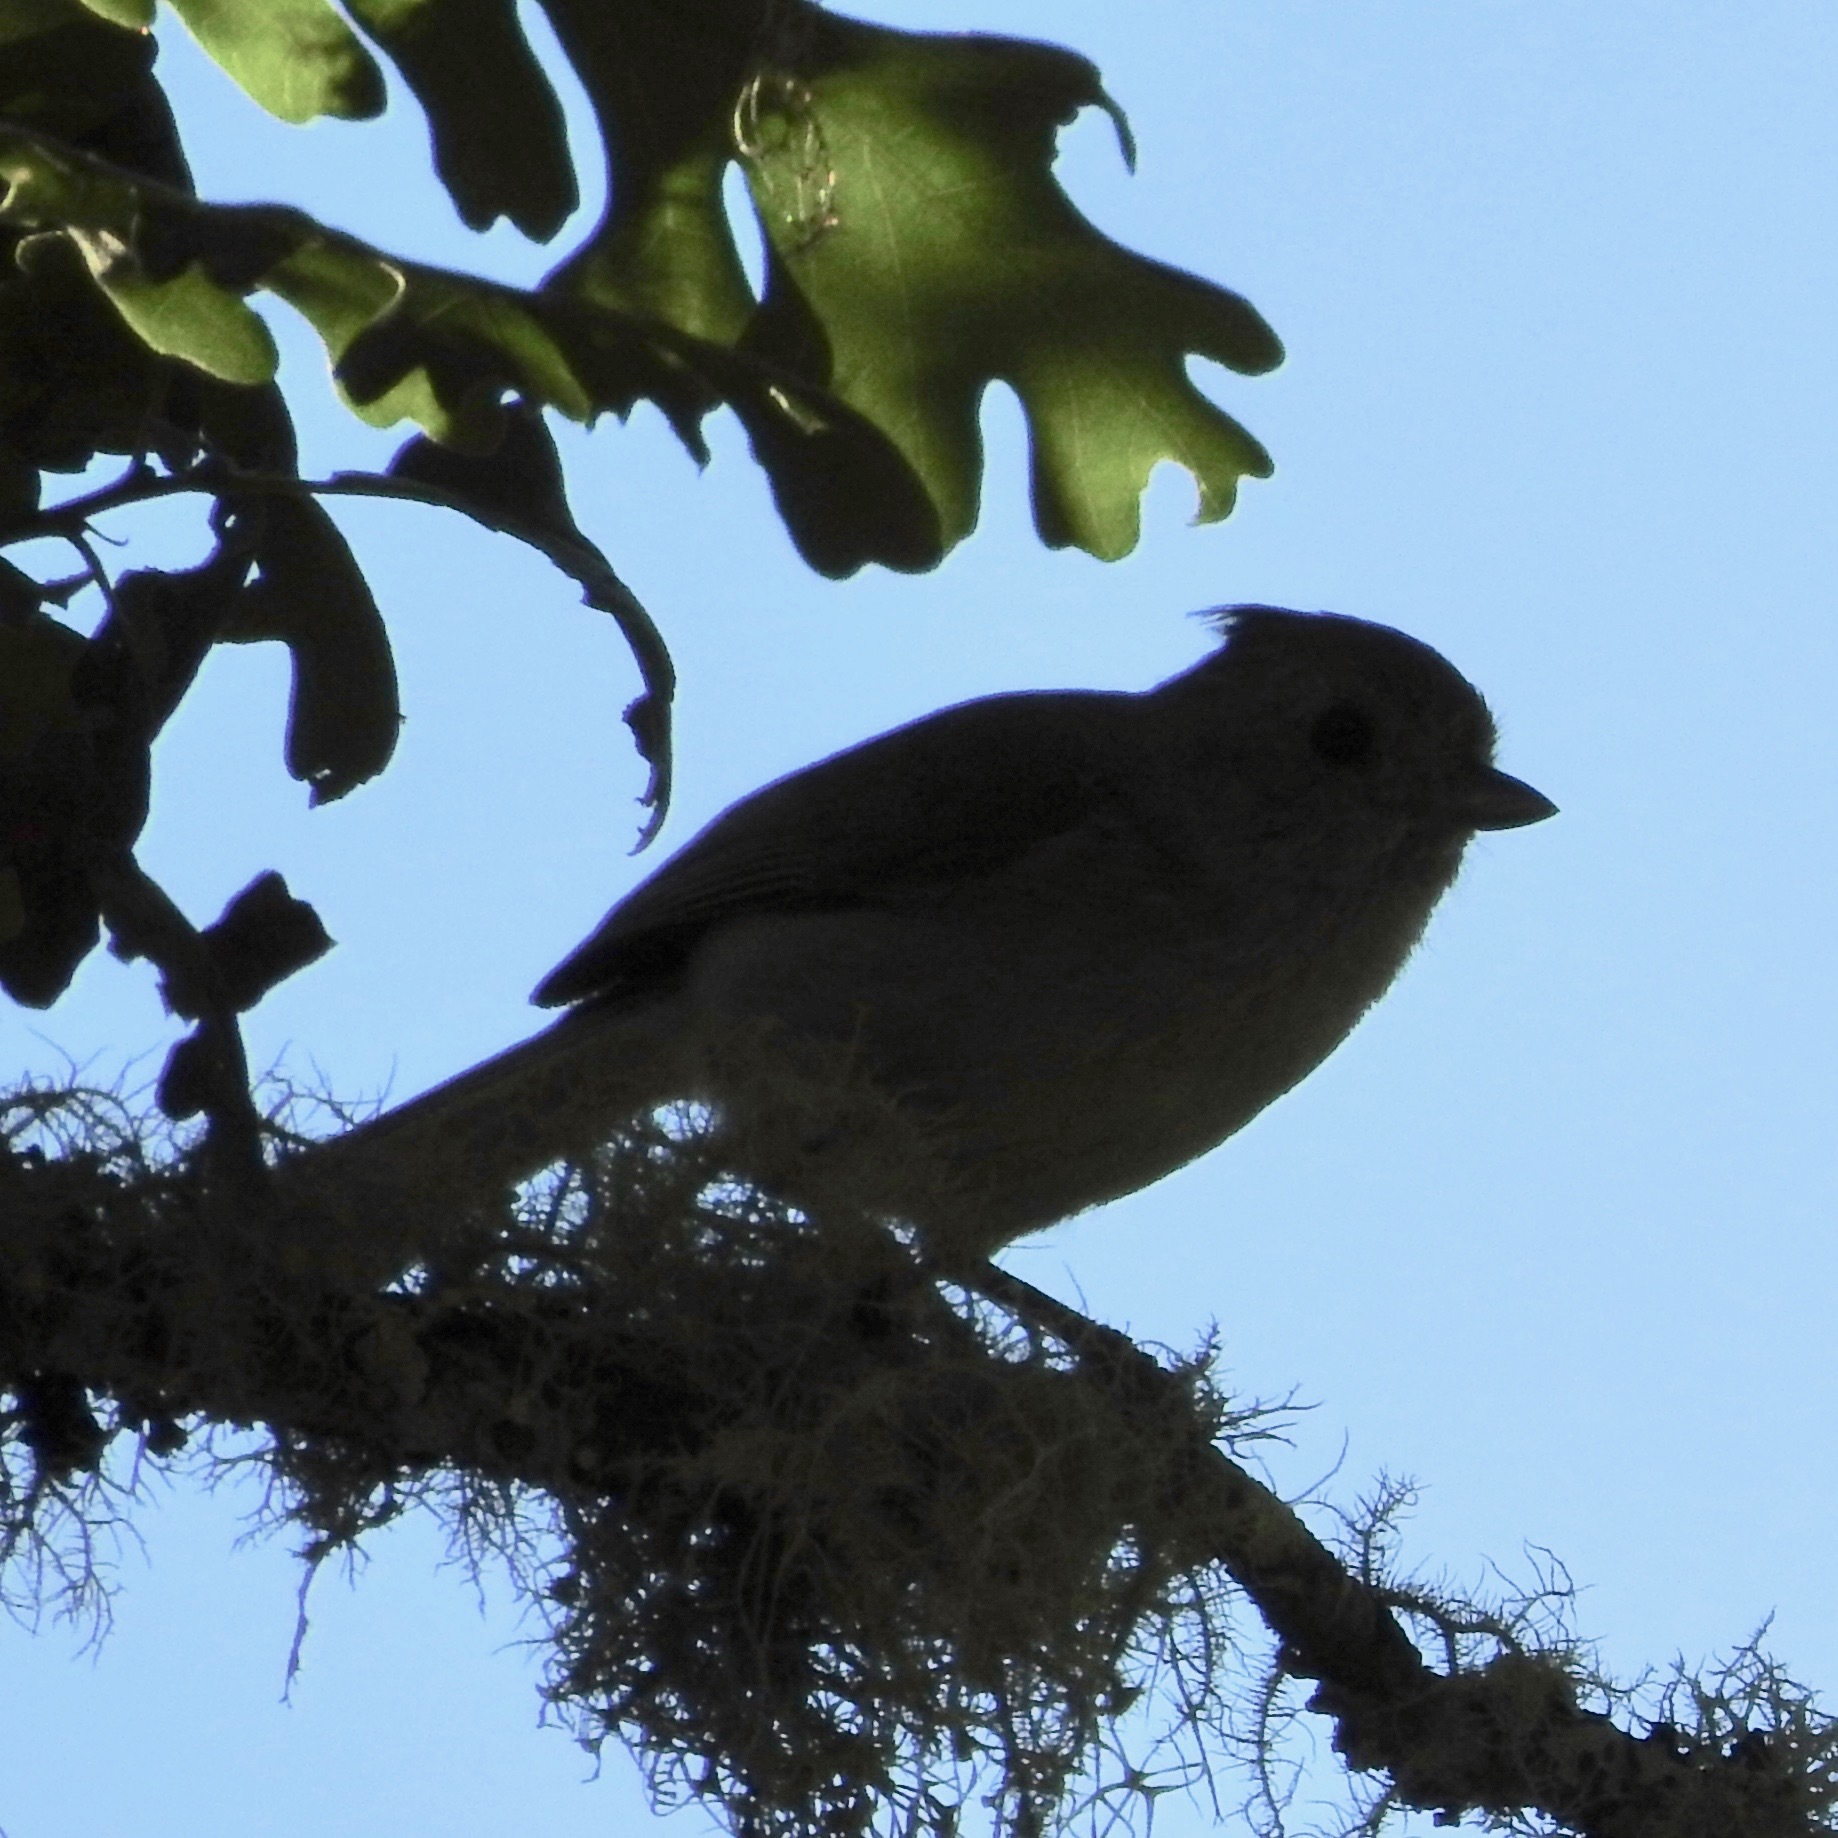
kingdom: Animalia
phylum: Chordata
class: Aves
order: Passeriformes
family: Paridae
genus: Baeolophus
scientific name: Baeolophus inornatus
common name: Oak titmouse
